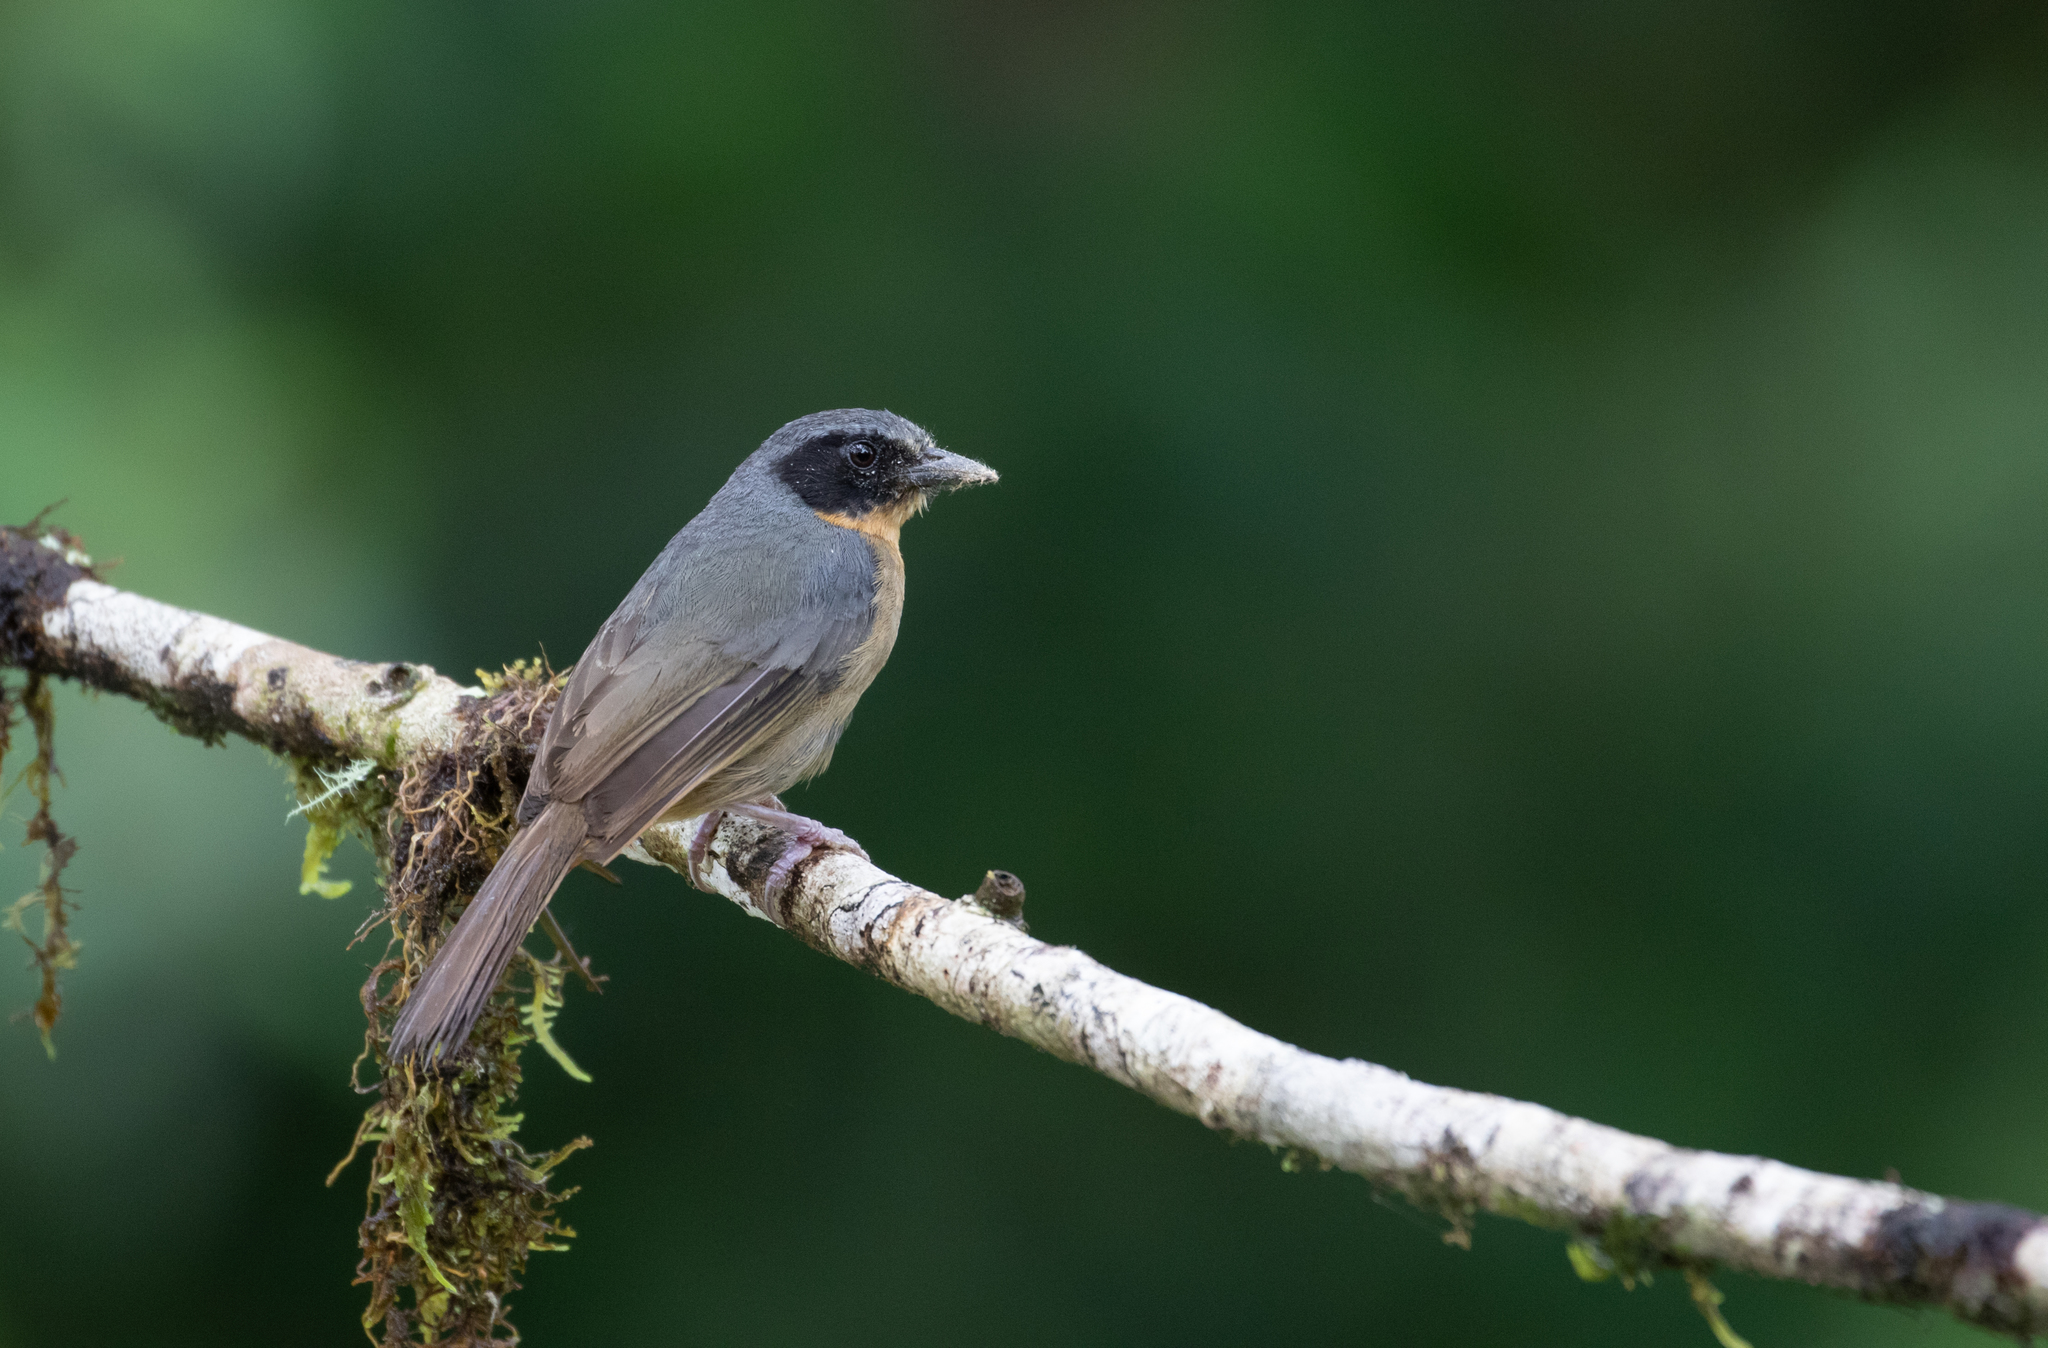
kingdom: Animalia
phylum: Chordata
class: Aves
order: Passeriformes
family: Thraupidae
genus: Sphenopsis
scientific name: Sphenopsis melanotis
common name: Black-eared hemispingus
